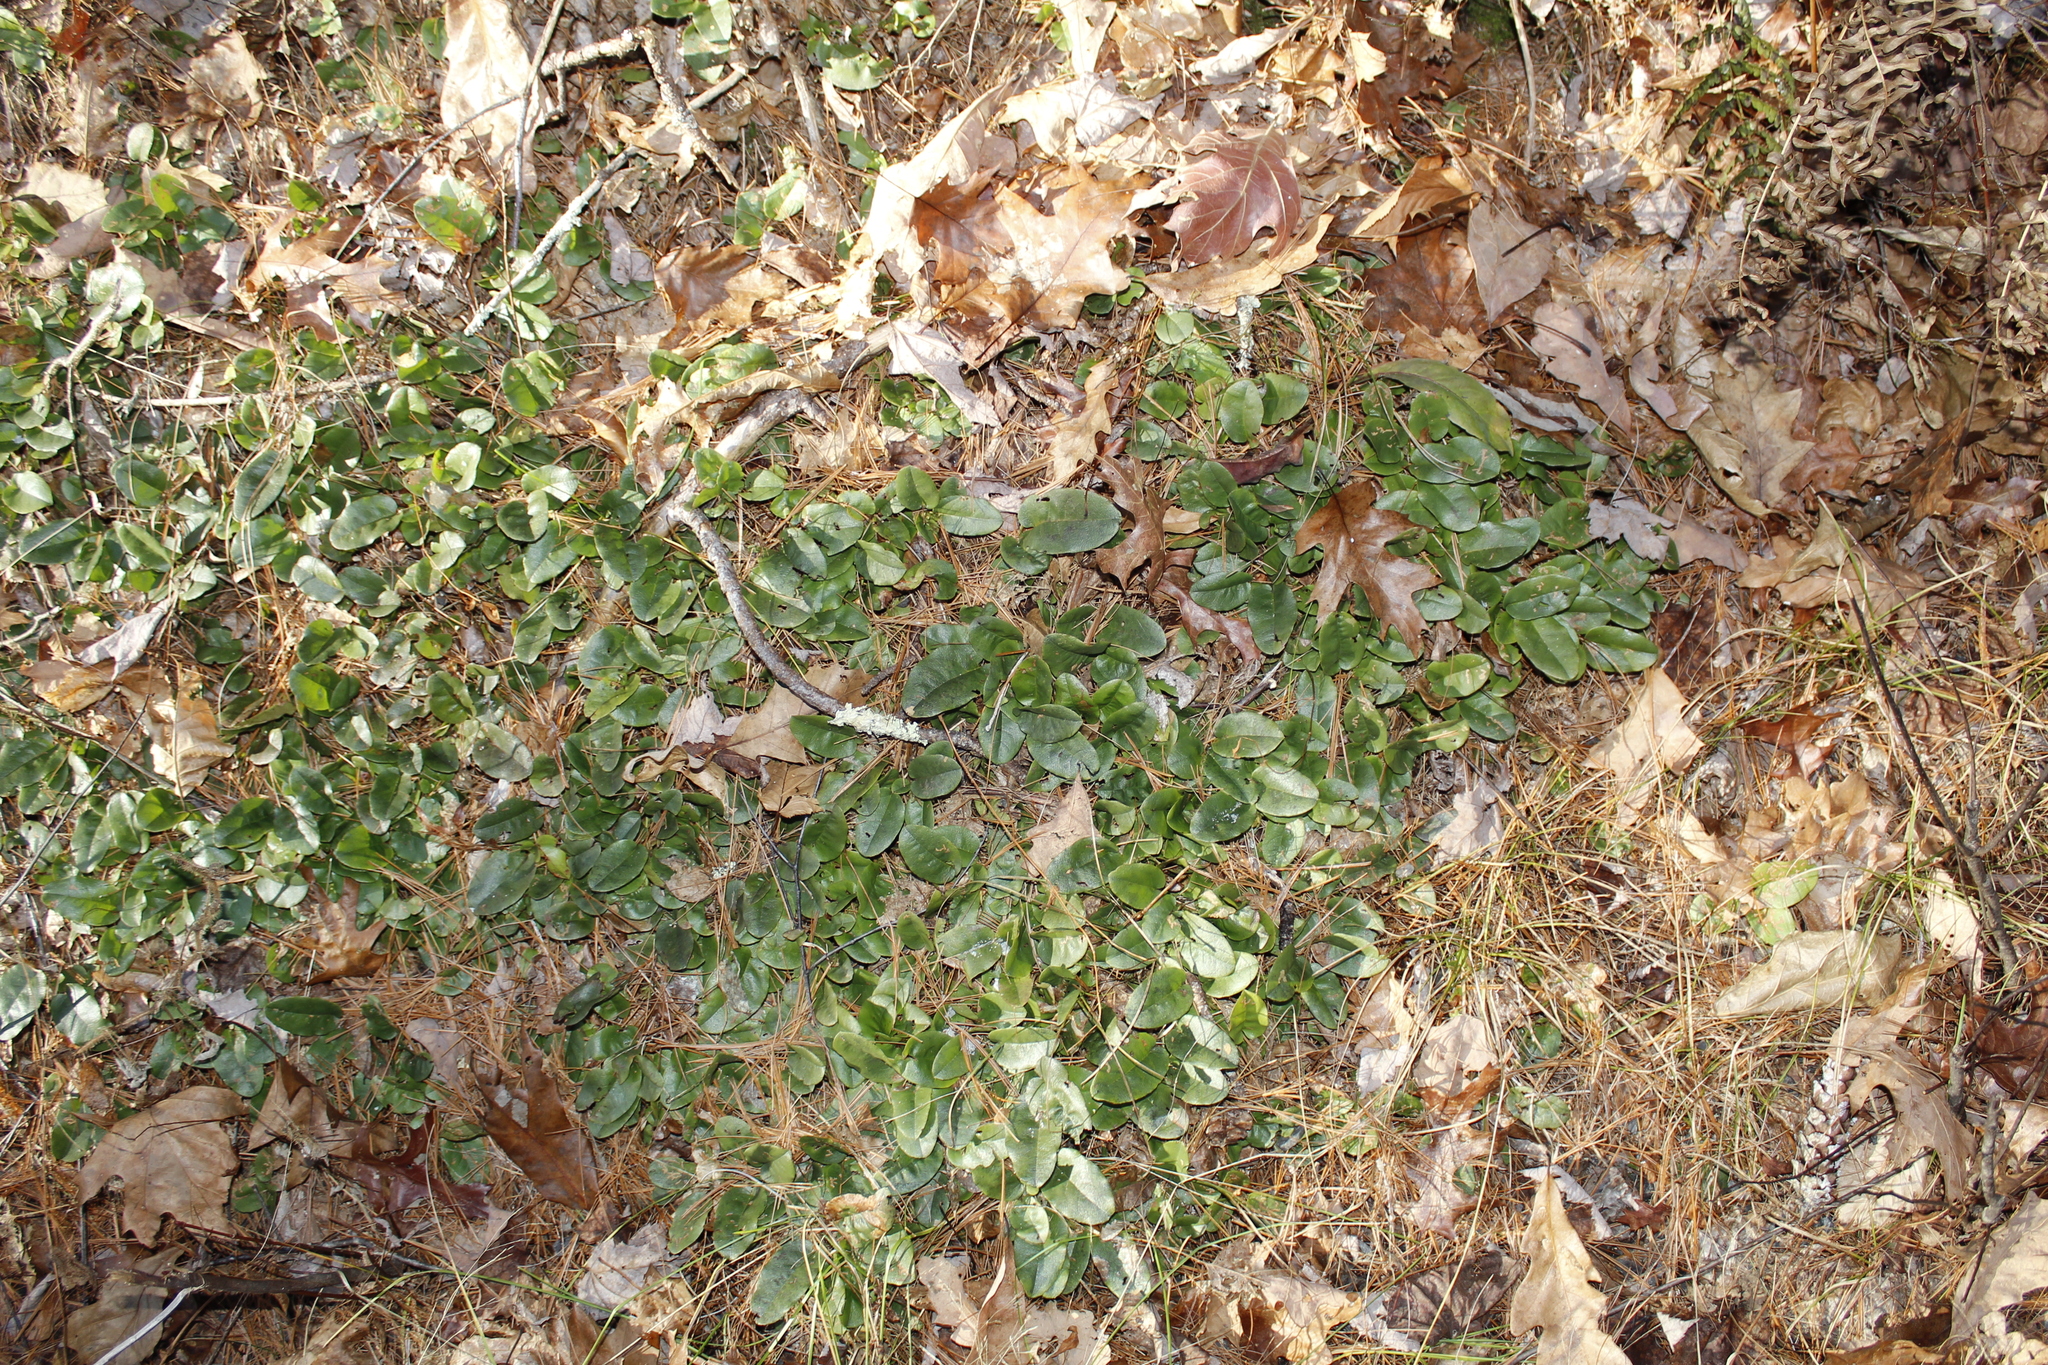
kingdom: Plantae
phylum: Tracheophyta
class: Magnoliopsida
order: Ericales
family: Ericaceae
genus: Epigaea
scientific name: Epigaea repens
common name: Gravelroot
